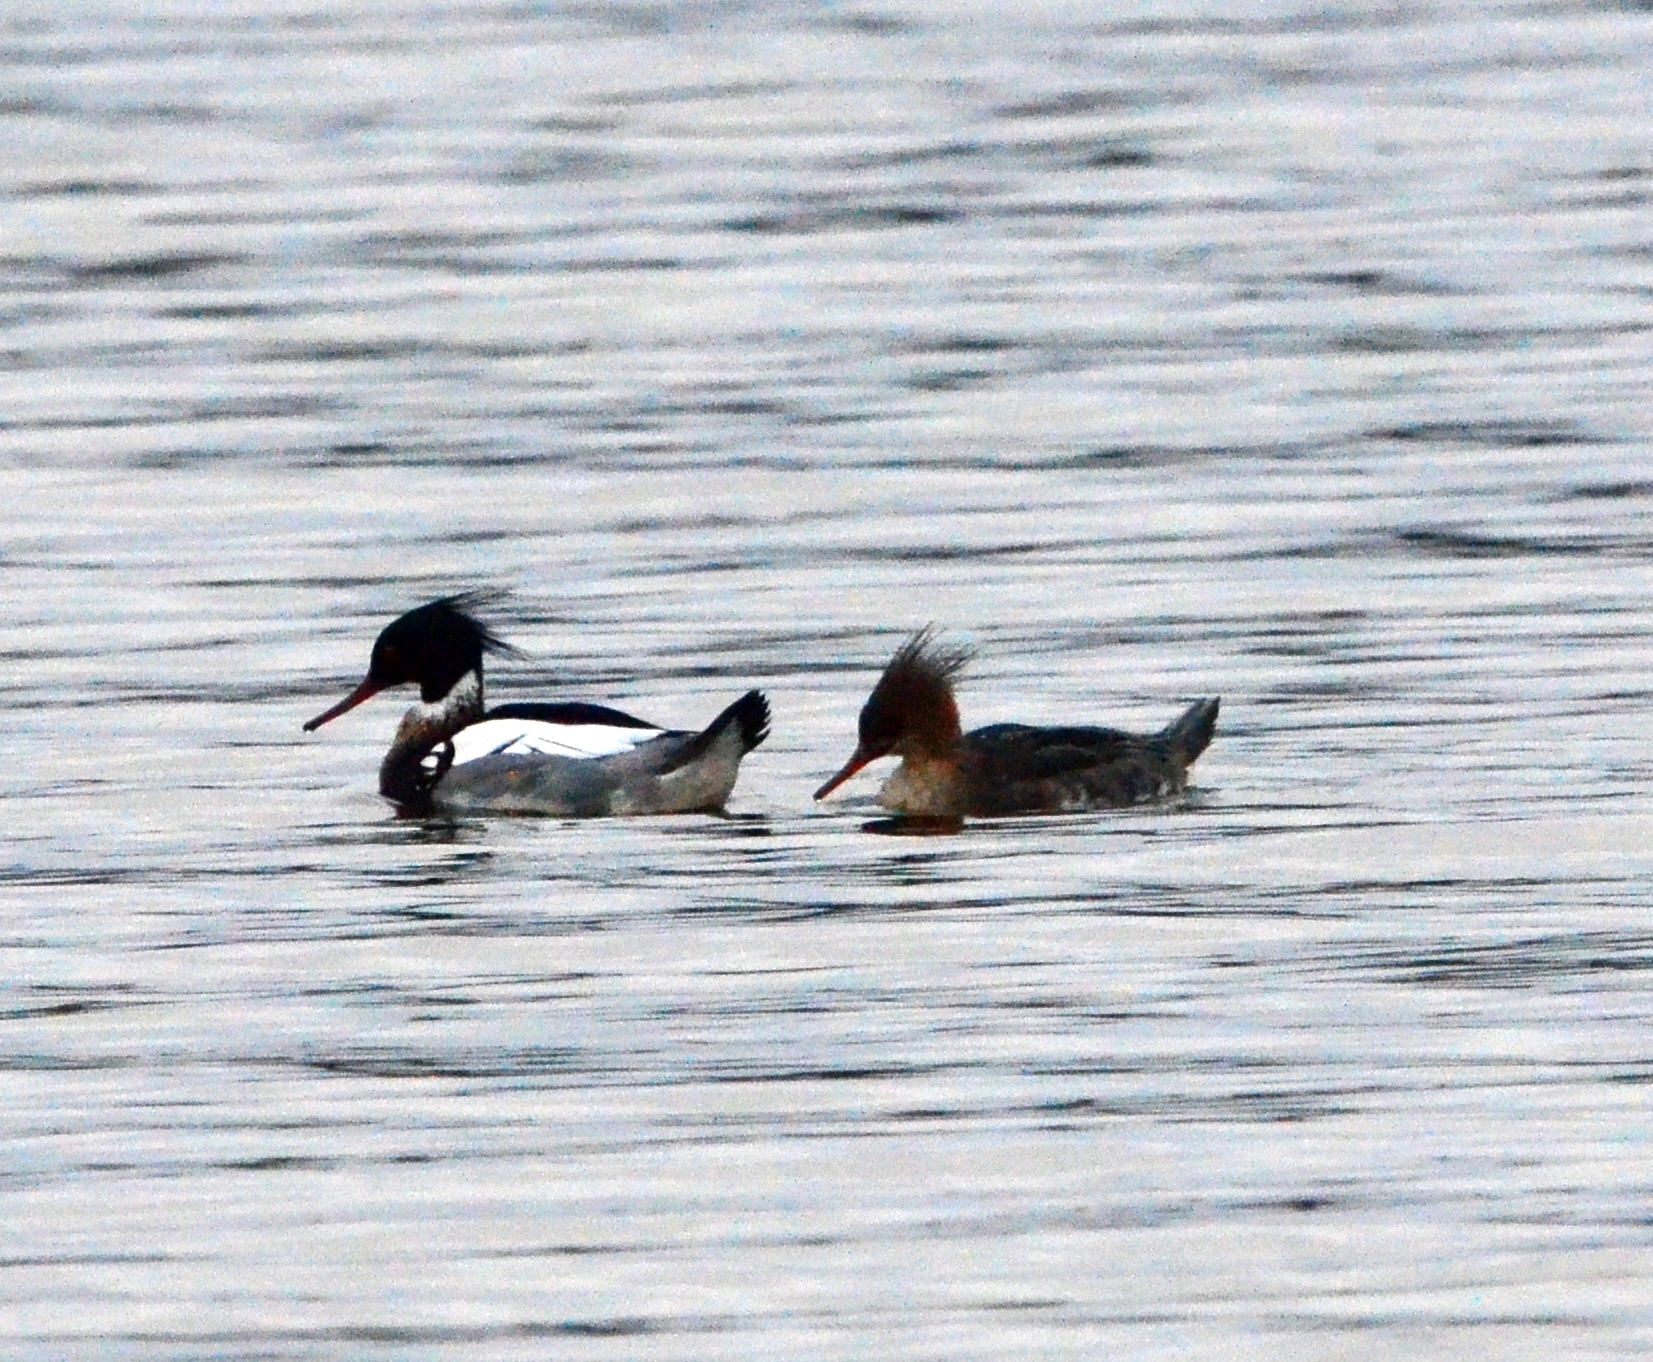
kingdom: Animalia
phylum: Chordata
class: Aves
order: Anseriformes
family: Anatidae
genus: Mergus
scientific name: Mergus serrator
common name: Red-breasted merganser
